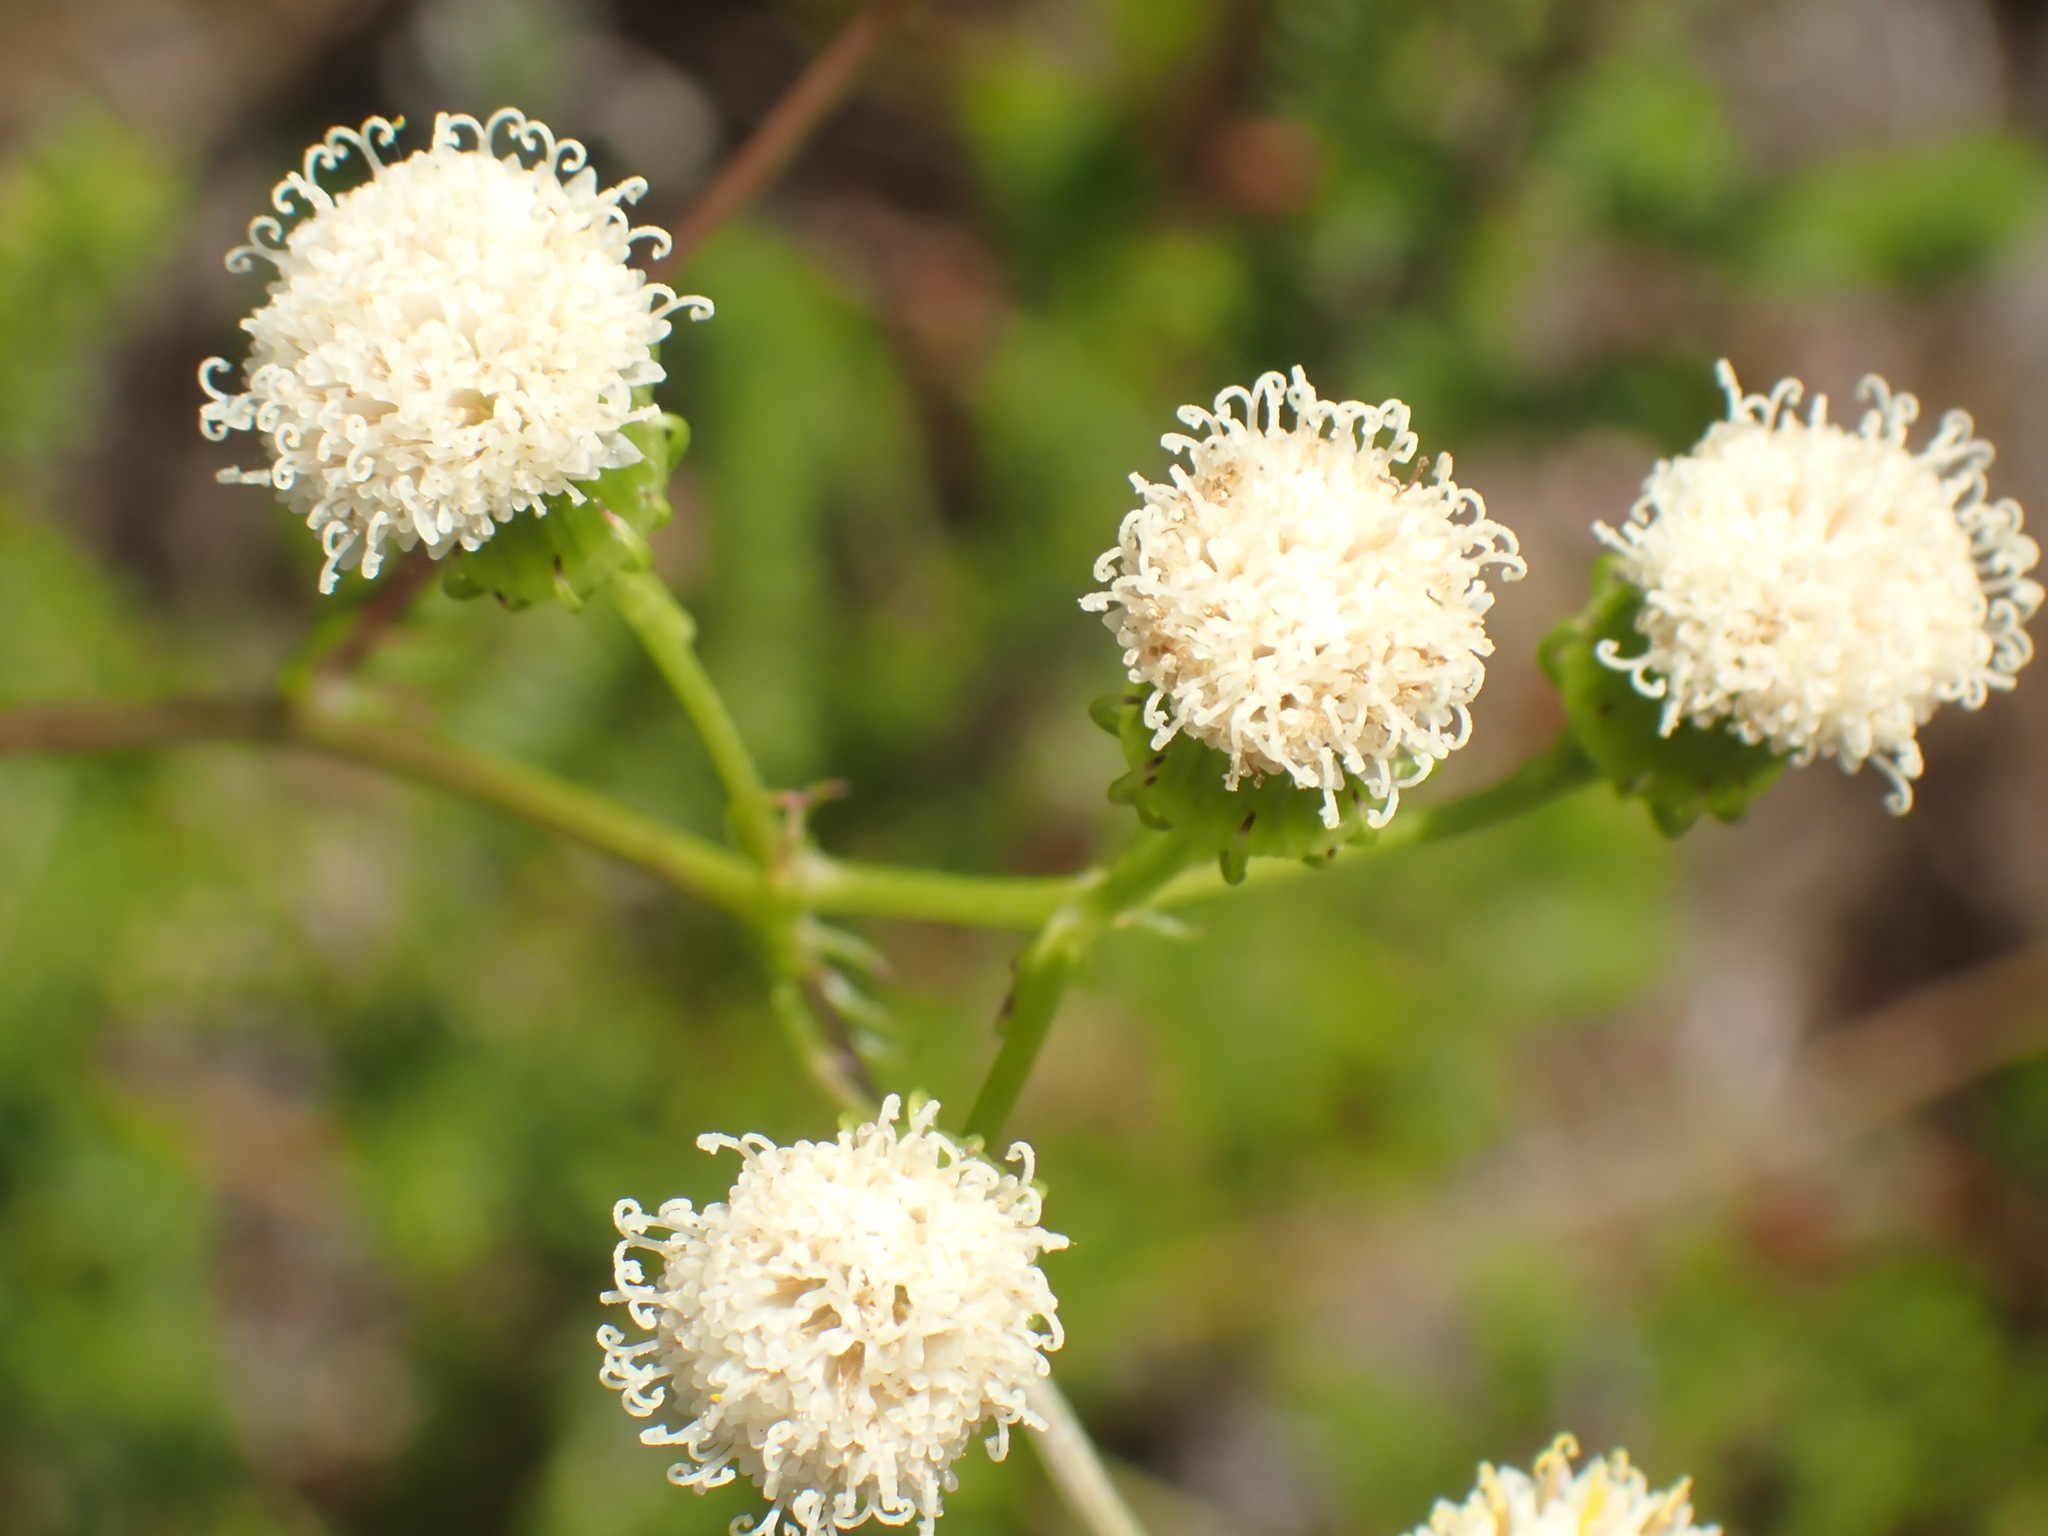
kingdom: Plantae
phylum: Tracheophyta
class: Magnoliopsida
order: Asterales
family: Asteraceae
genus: Curio
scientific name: Curio talinoides
